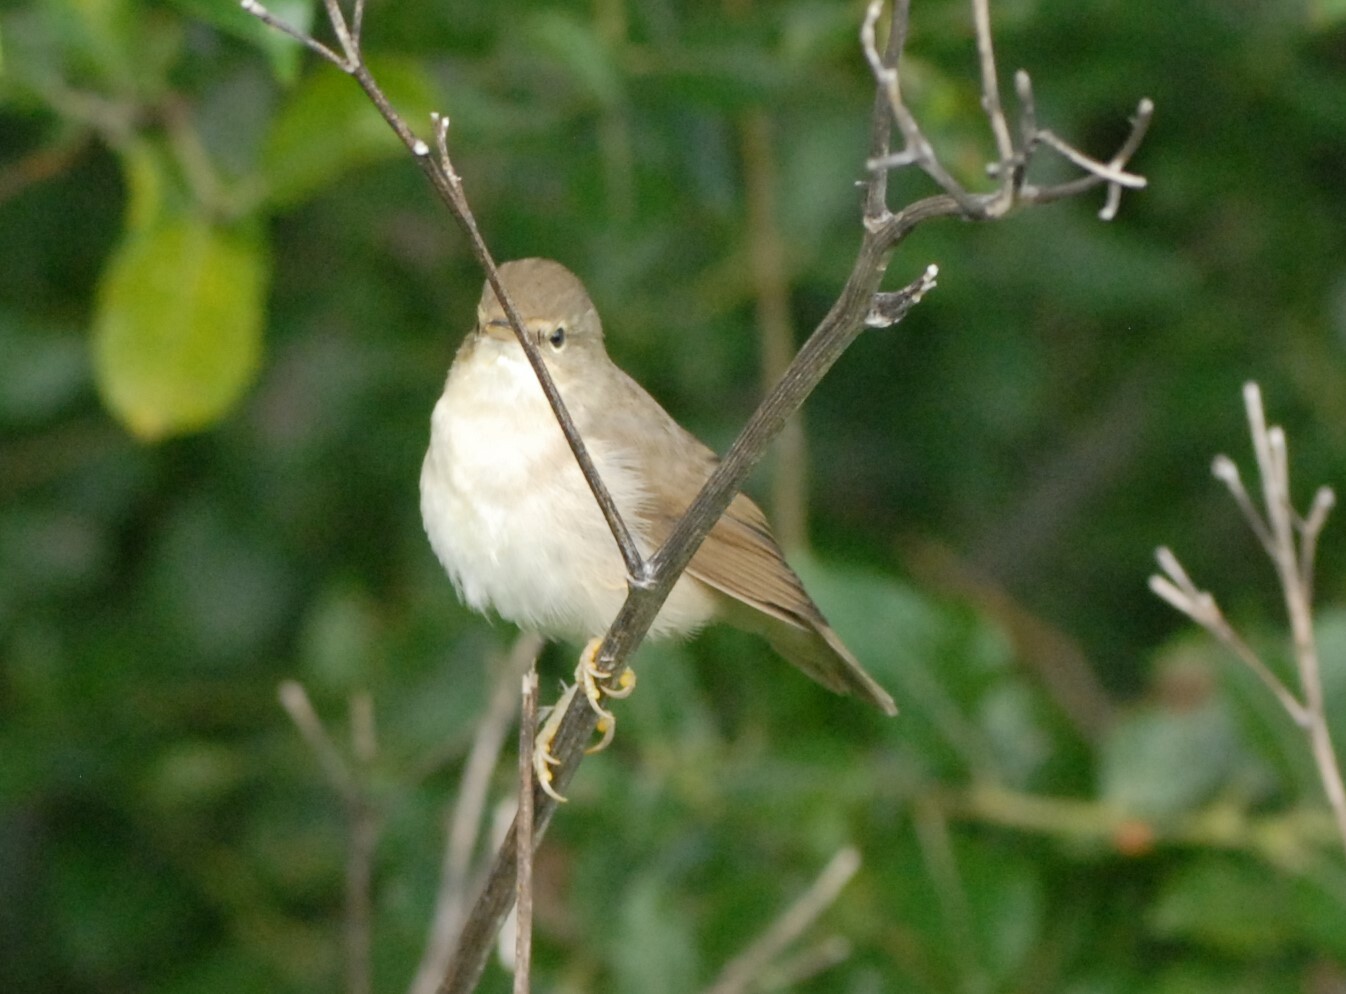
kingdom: Animalia
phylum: Chordata
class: Aves
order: Passeriformes
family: Acrocephalidae
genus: Acrocephalus
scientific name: Acrocephalus palustris
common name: Marsh warbler
